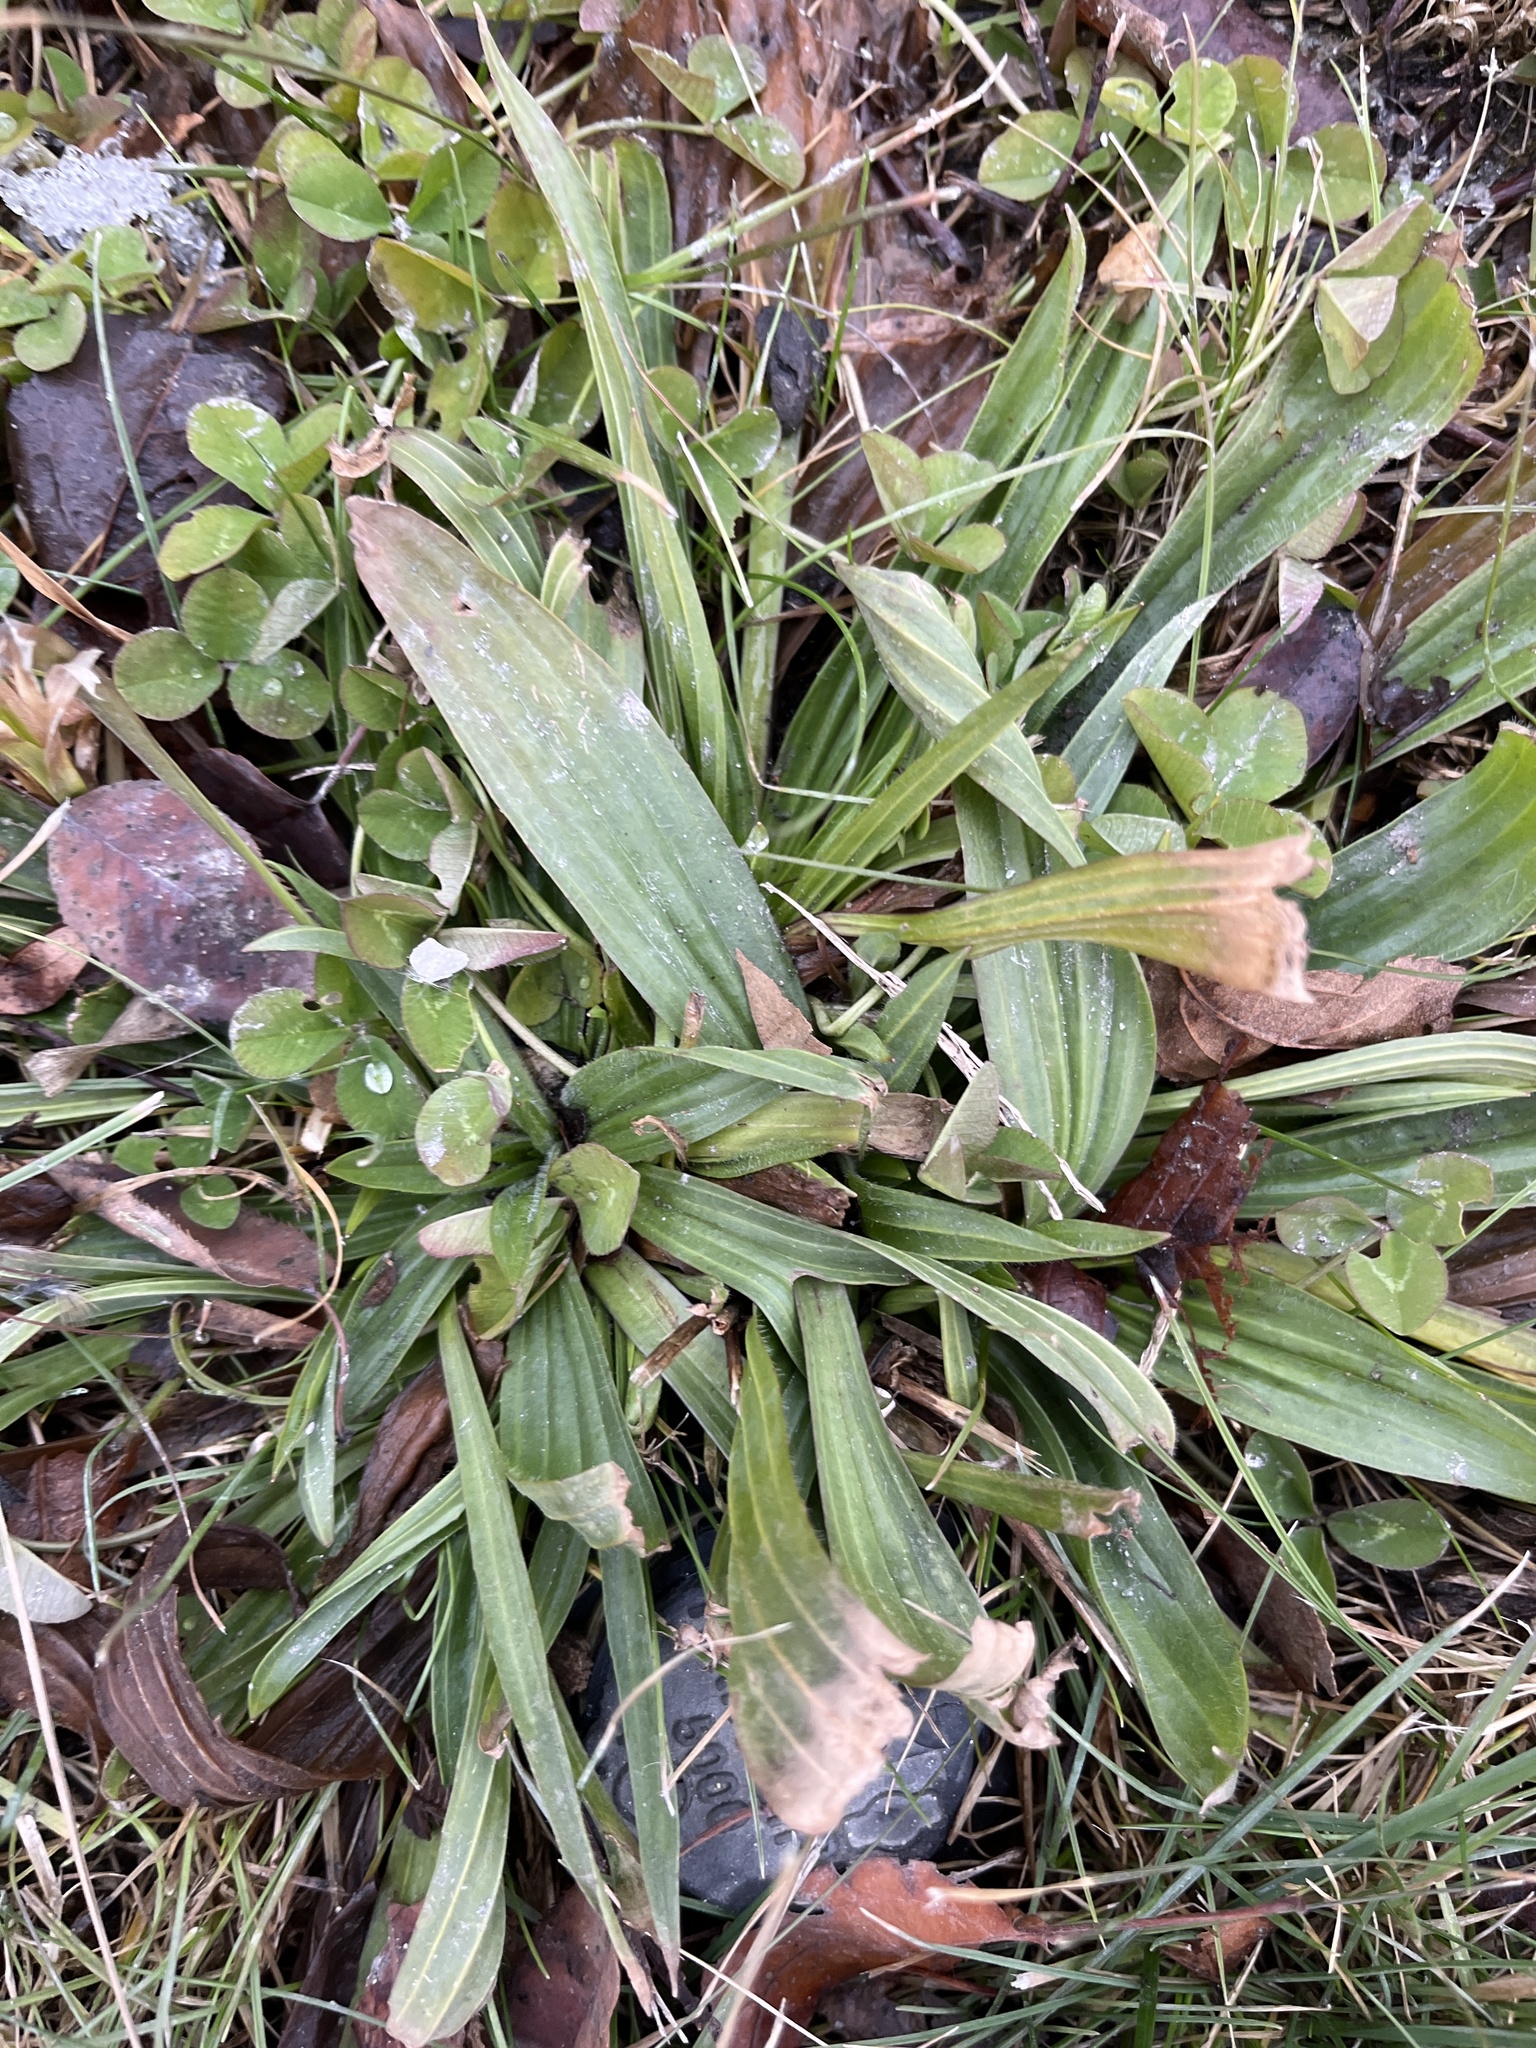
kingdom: Plantae
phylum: Tracheophyta
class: Magnoliopsida
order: Lamiales
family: Plantaginaceae
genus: Plantago
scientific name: Plantago lanceolata
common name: Ribwort plantain
